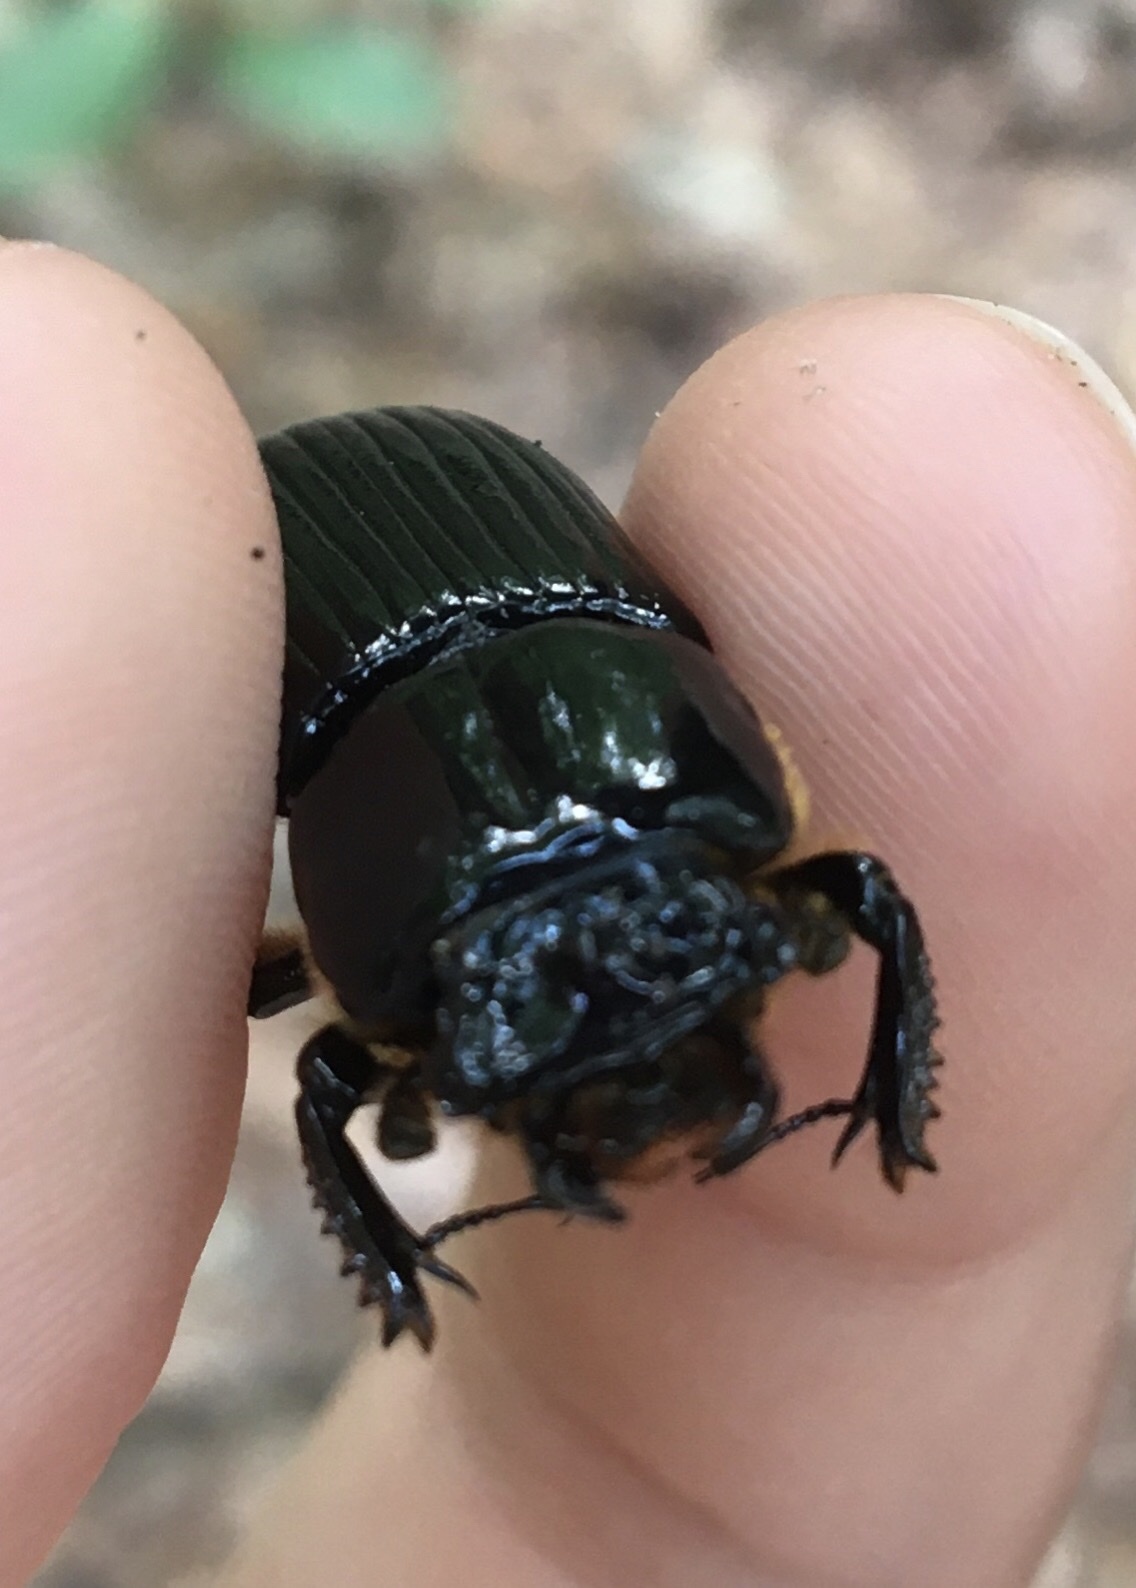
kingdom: Animalia
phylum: Arthropoda
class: Insecta
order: Coleoptera
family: Passalidae
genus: Odontotaenius
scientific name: Odontotaenius disjunctus
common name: Patent leather beetle
